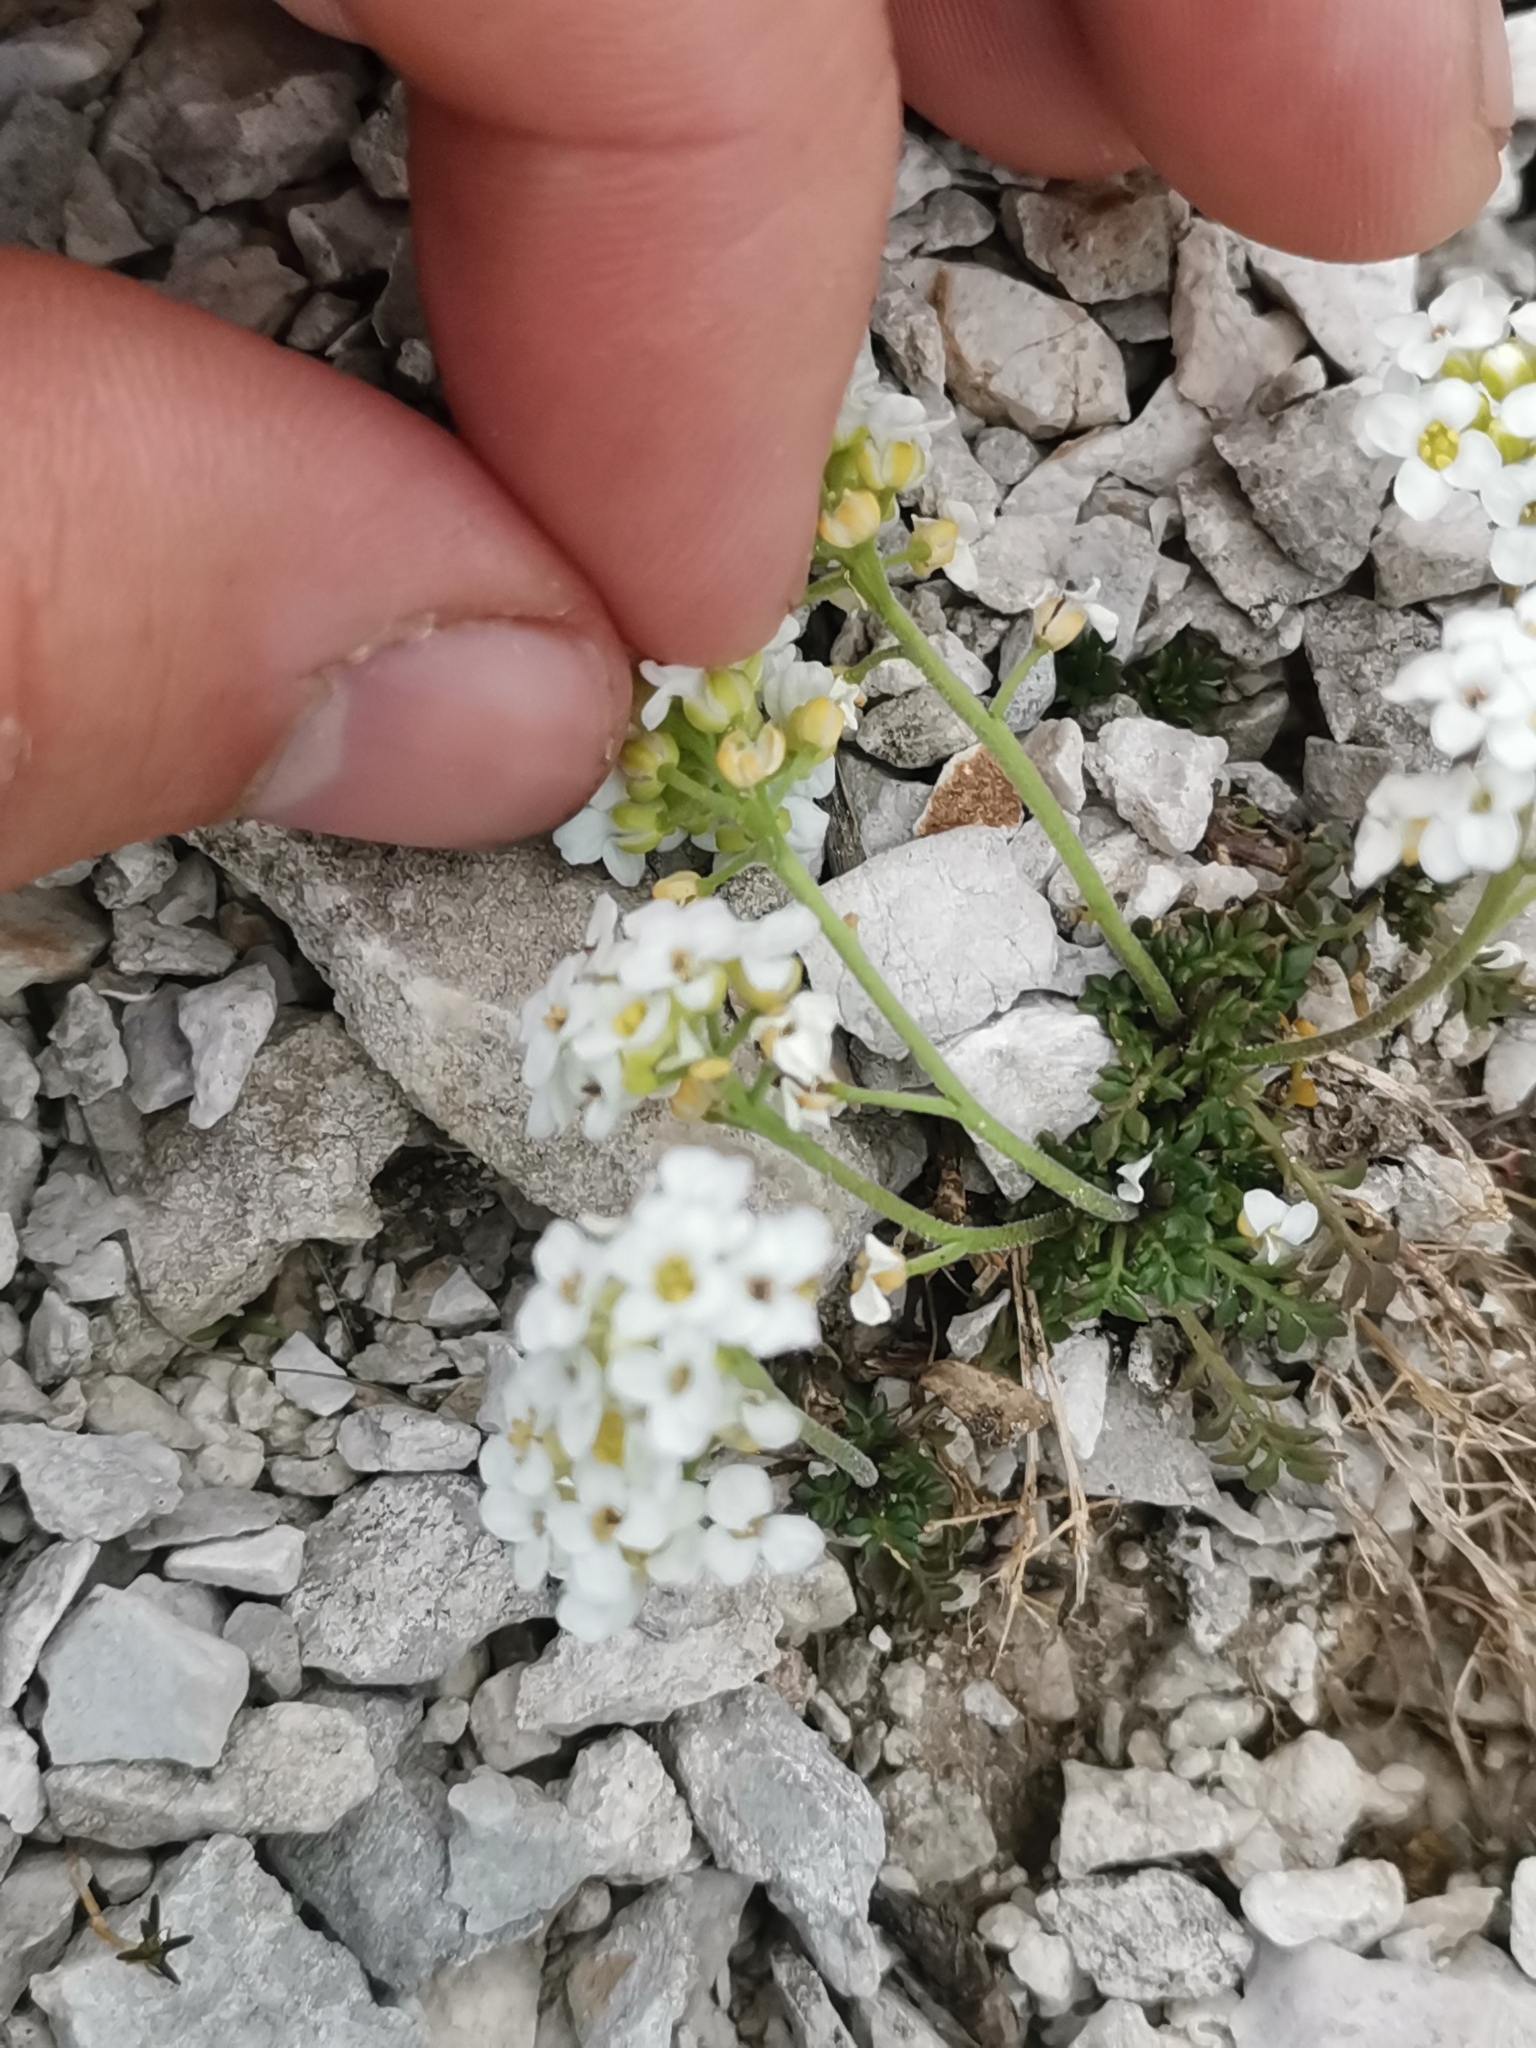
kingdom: Plantae
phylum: Tracheophyta
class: Magnoliopsida
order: Brassicales
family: Brassicaceae
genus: Hornungia
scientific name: Hornungia alpina
